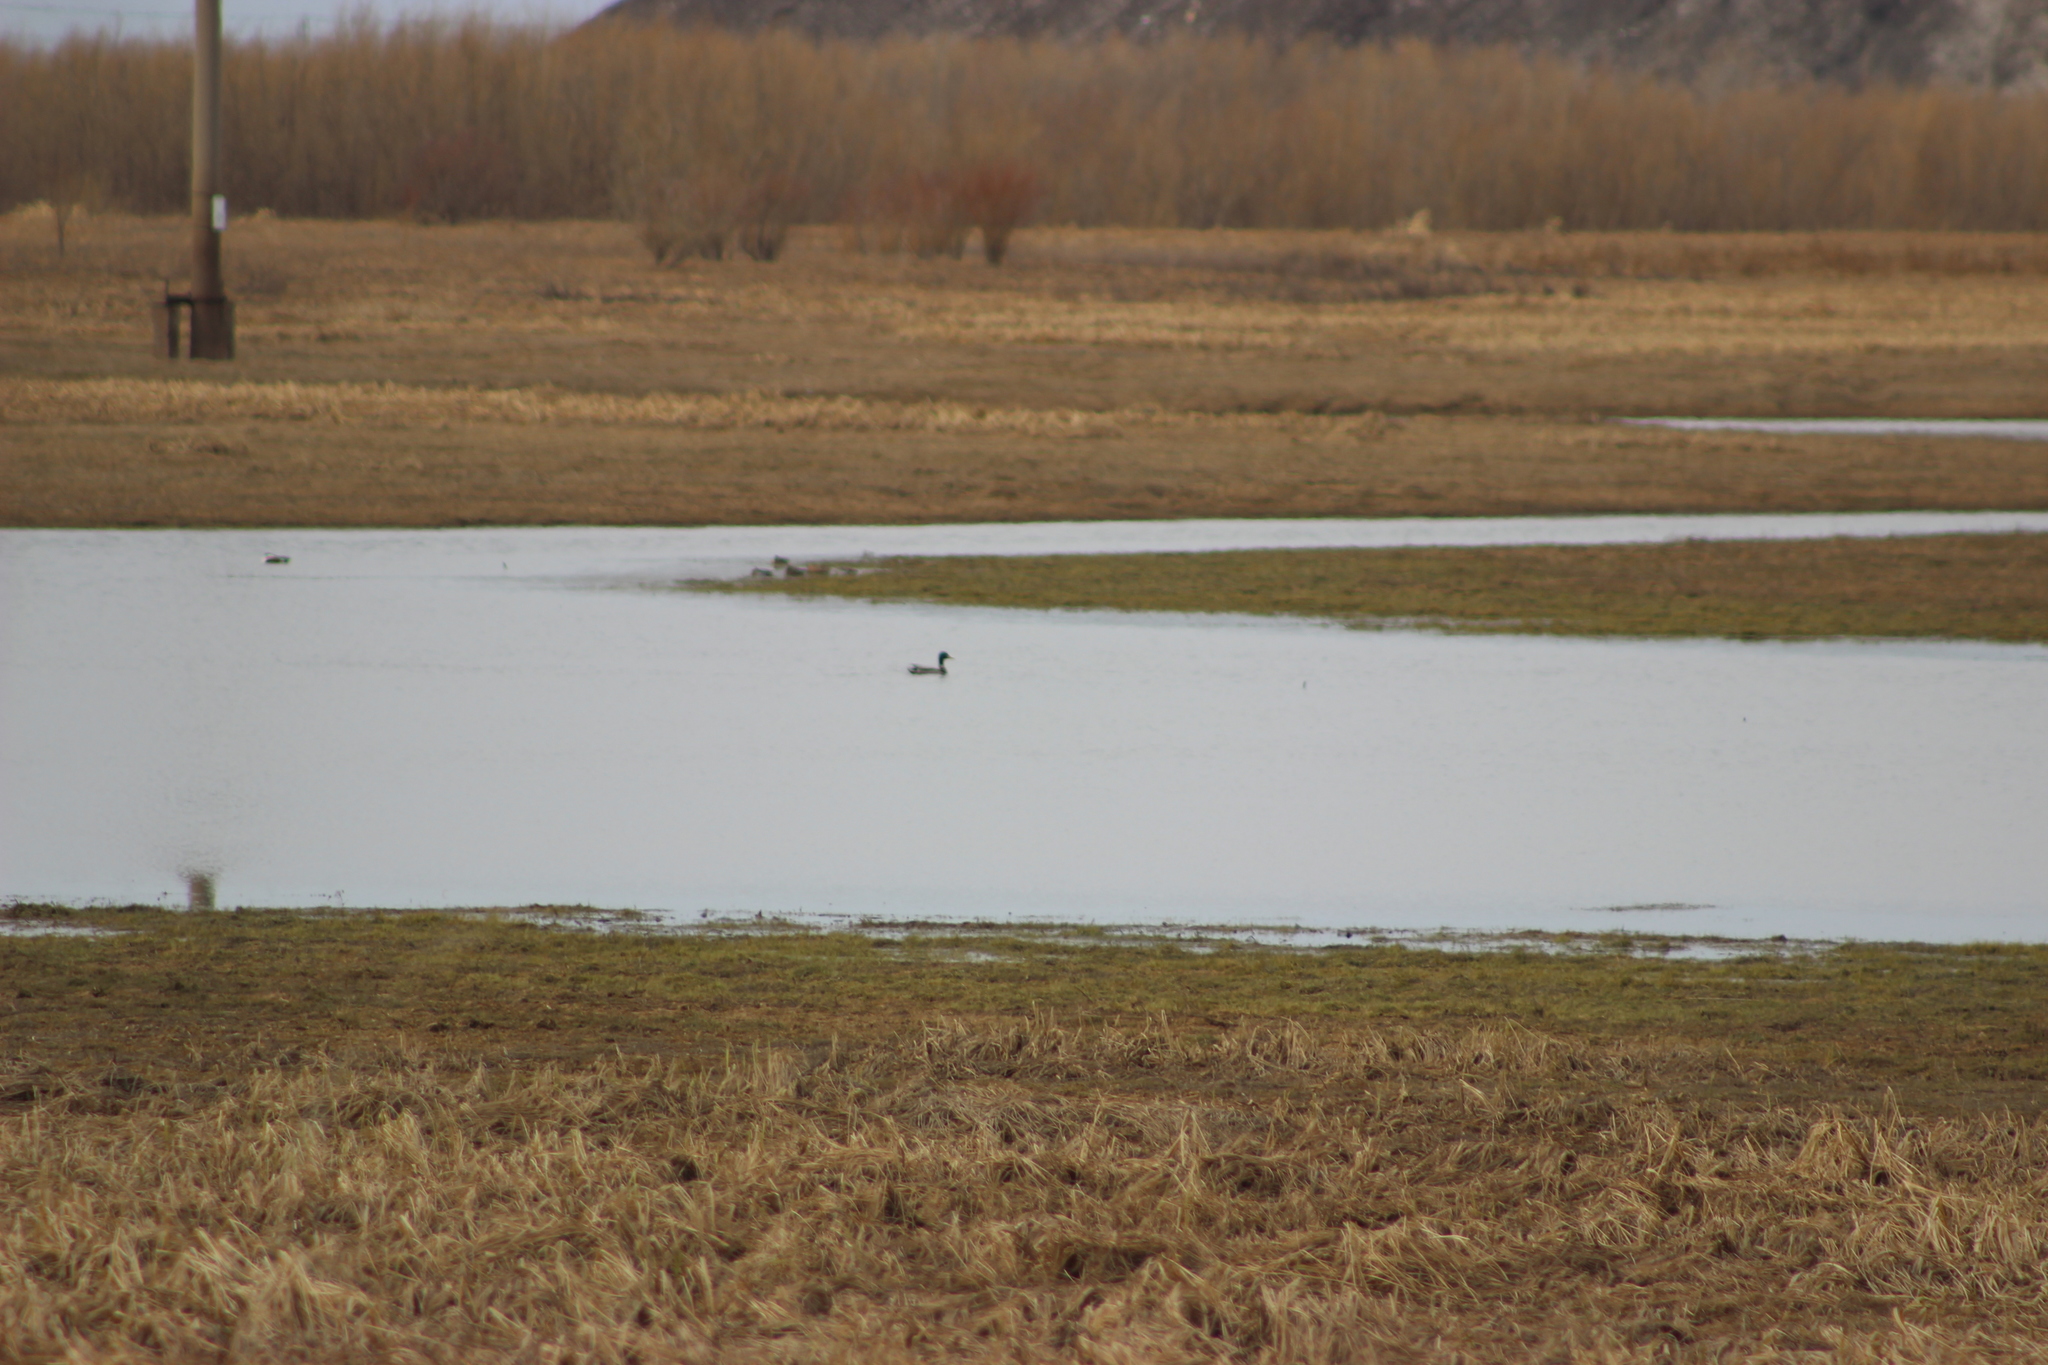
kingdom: Animalia
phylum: Chordata
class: Aves
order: Anseriformes
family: Anatidae
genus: Anas
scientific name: Anas platyrhynchos
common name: Mallard
